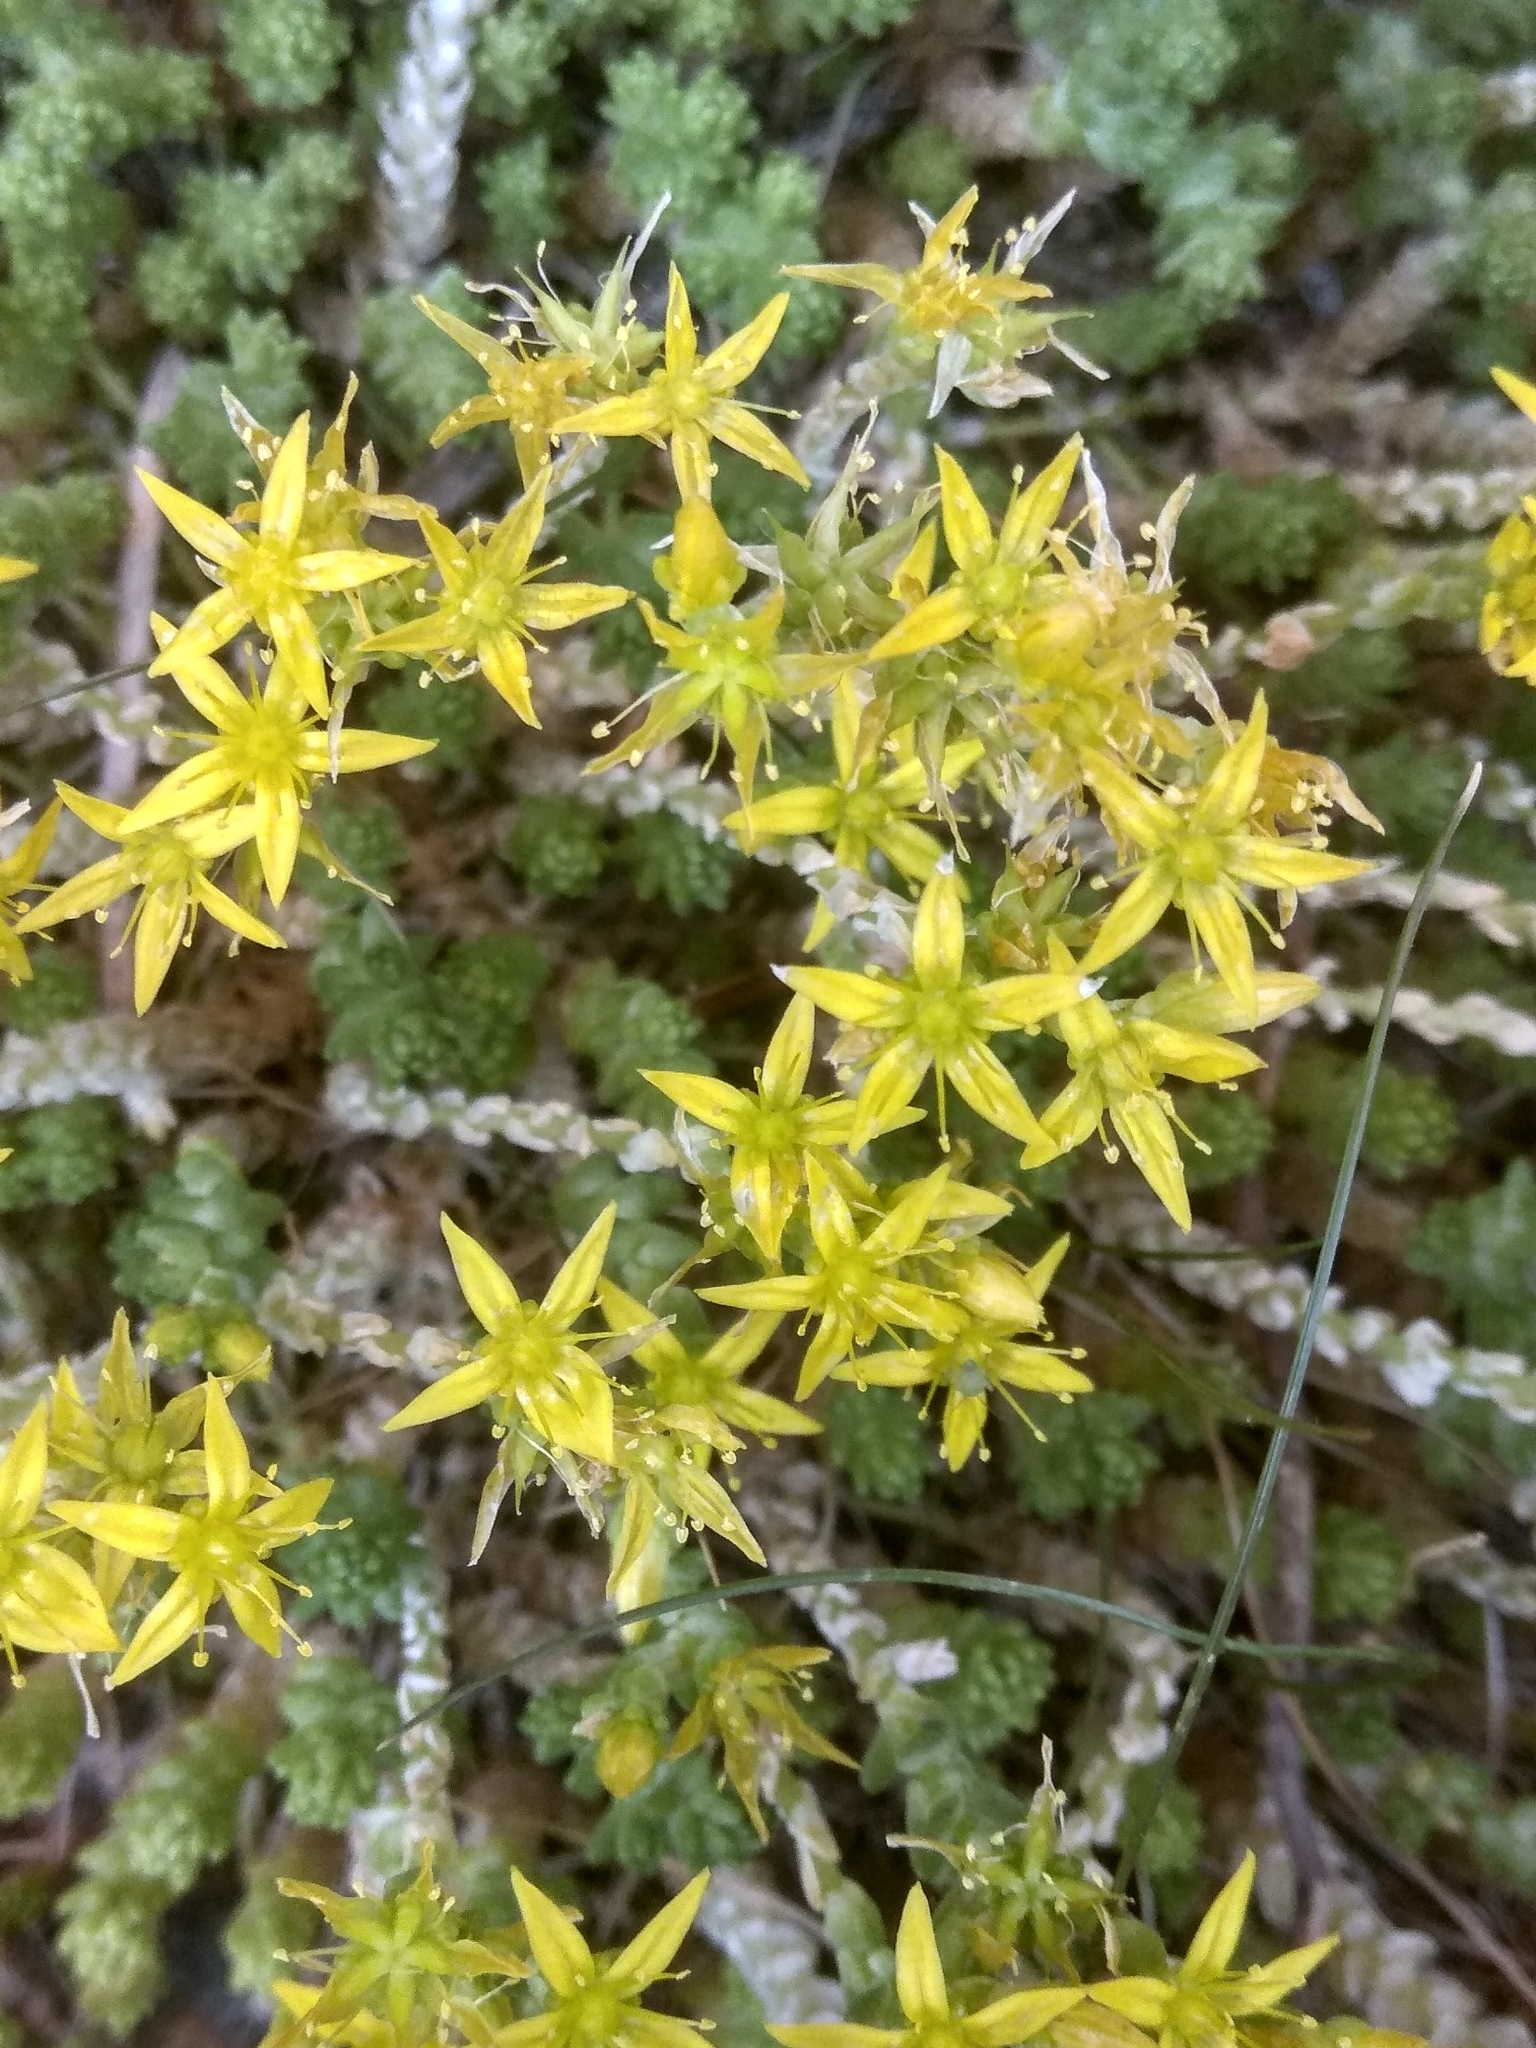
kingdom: Plantae
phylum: Tracheophyta
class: Magnoliopsida
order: Saxifragales
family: Crassulaceae
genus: Sedum
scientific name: Sedum acre
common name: Biting stonecrop
